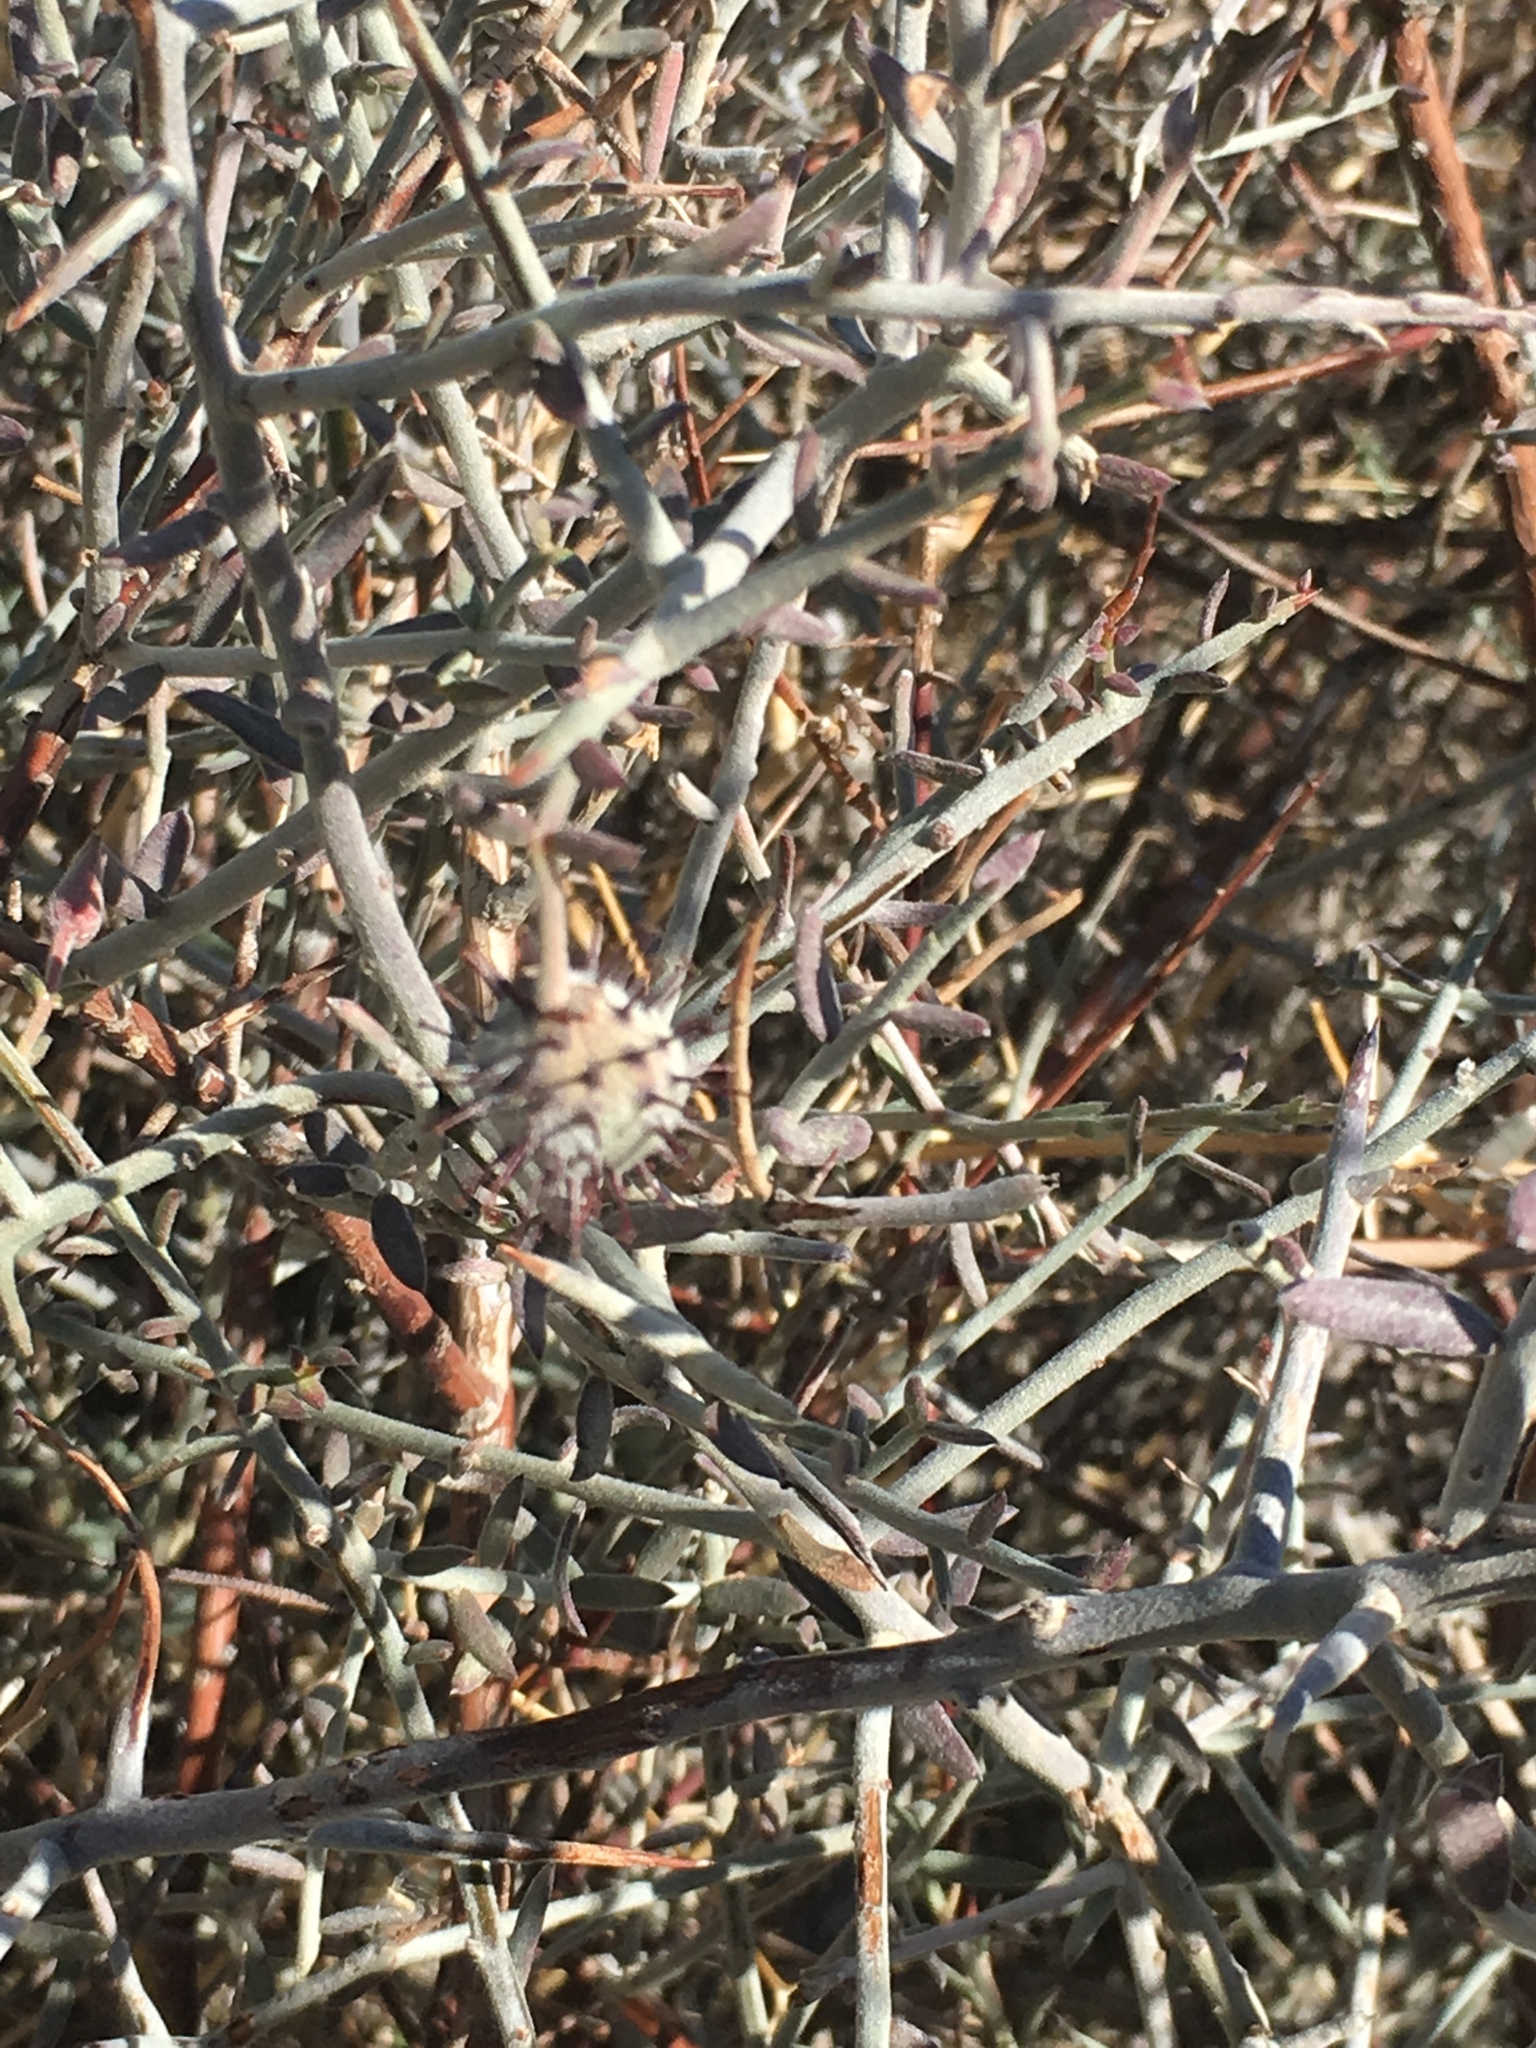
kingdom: Plantae
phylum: Tracheophyta
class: Magnoliopsida
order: Zygophyllales
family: Krameriaceae
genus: Krameria
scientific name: Krameria bicolor
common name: White ratany
